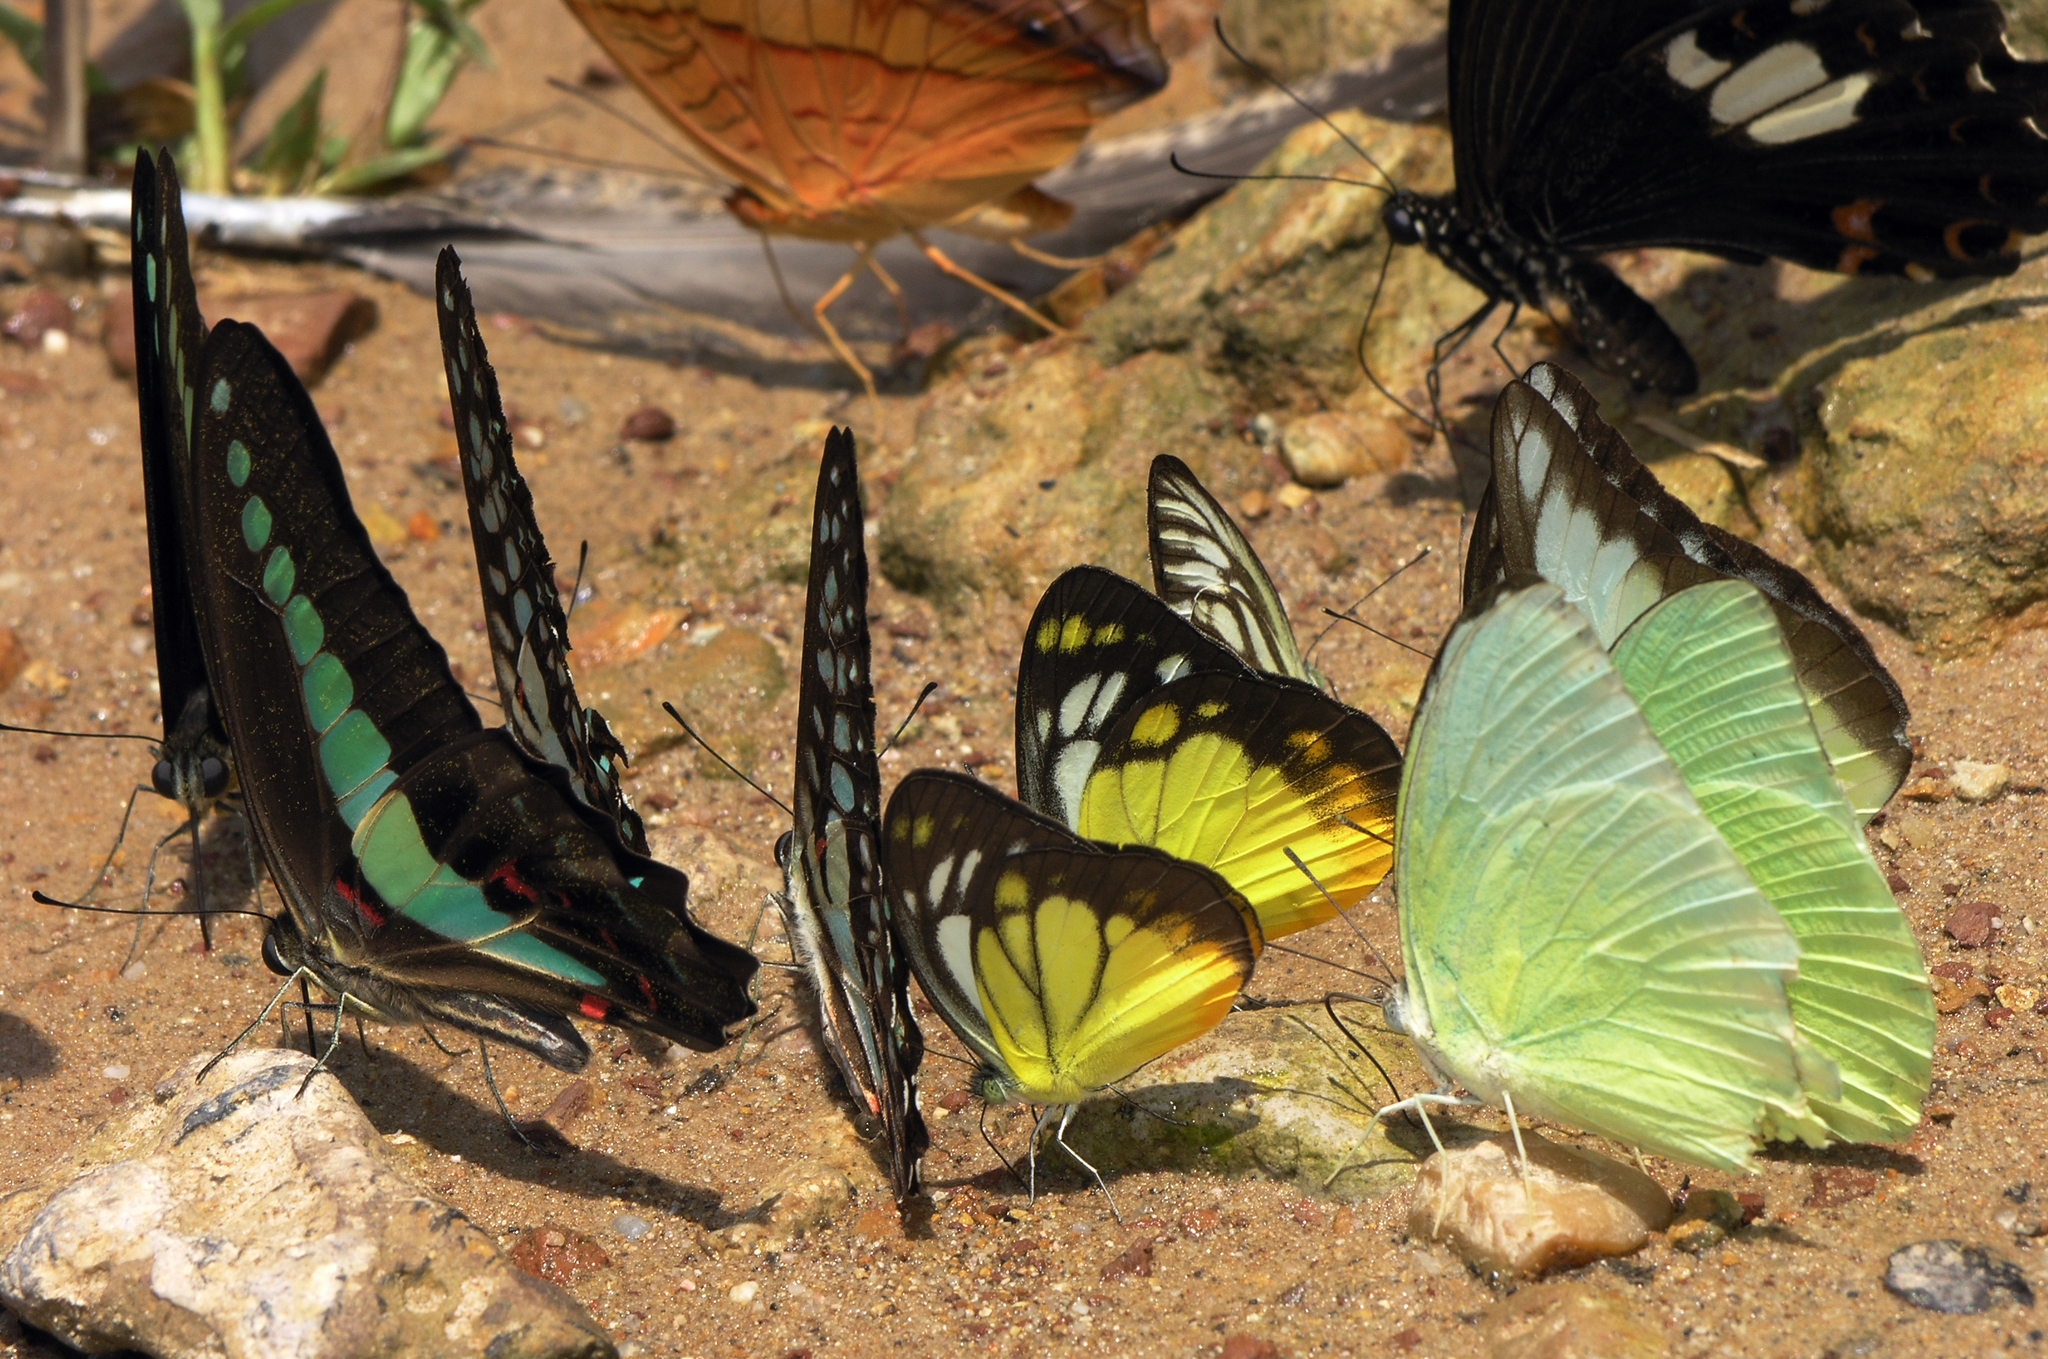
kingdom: Animalia
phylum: Arthropoda
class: Insecta
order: Lepidoptera
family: Pieridae
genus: Catopsilia
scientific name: Catopsilia pomona
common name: Common emigrant
